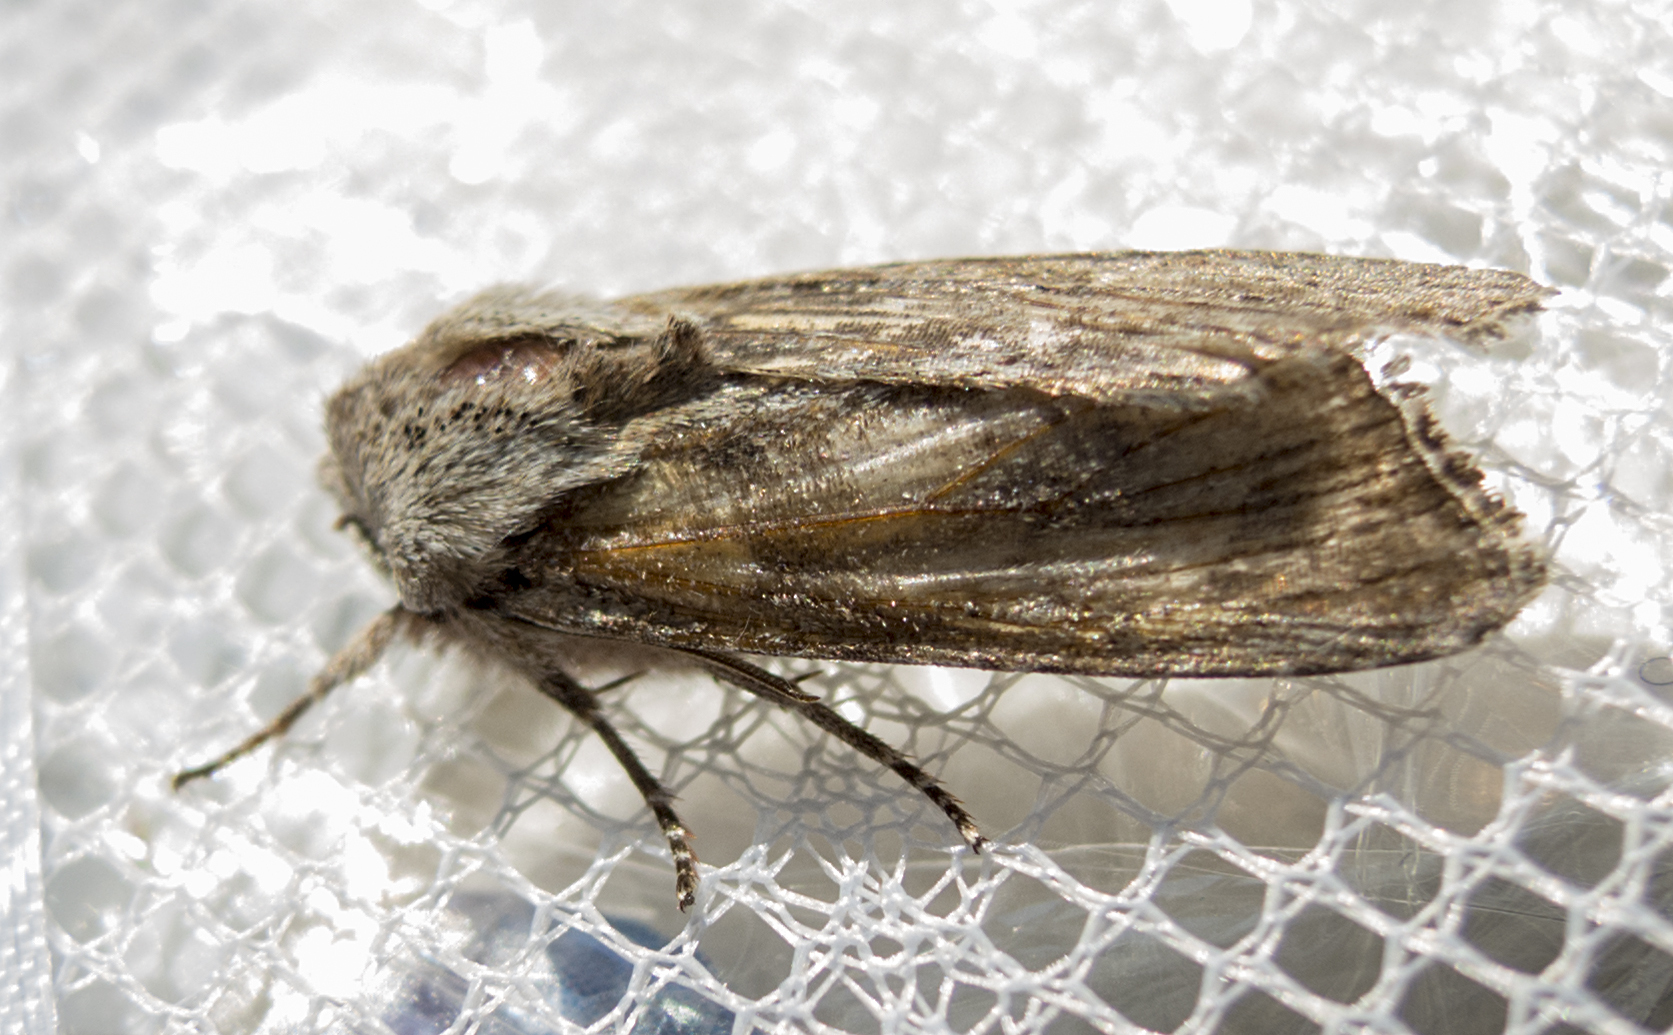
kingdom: Animalia
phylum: Arthropoda
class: Insecta
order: Lepidoptera
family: Noctuidae
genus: Egira
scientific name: Egira
